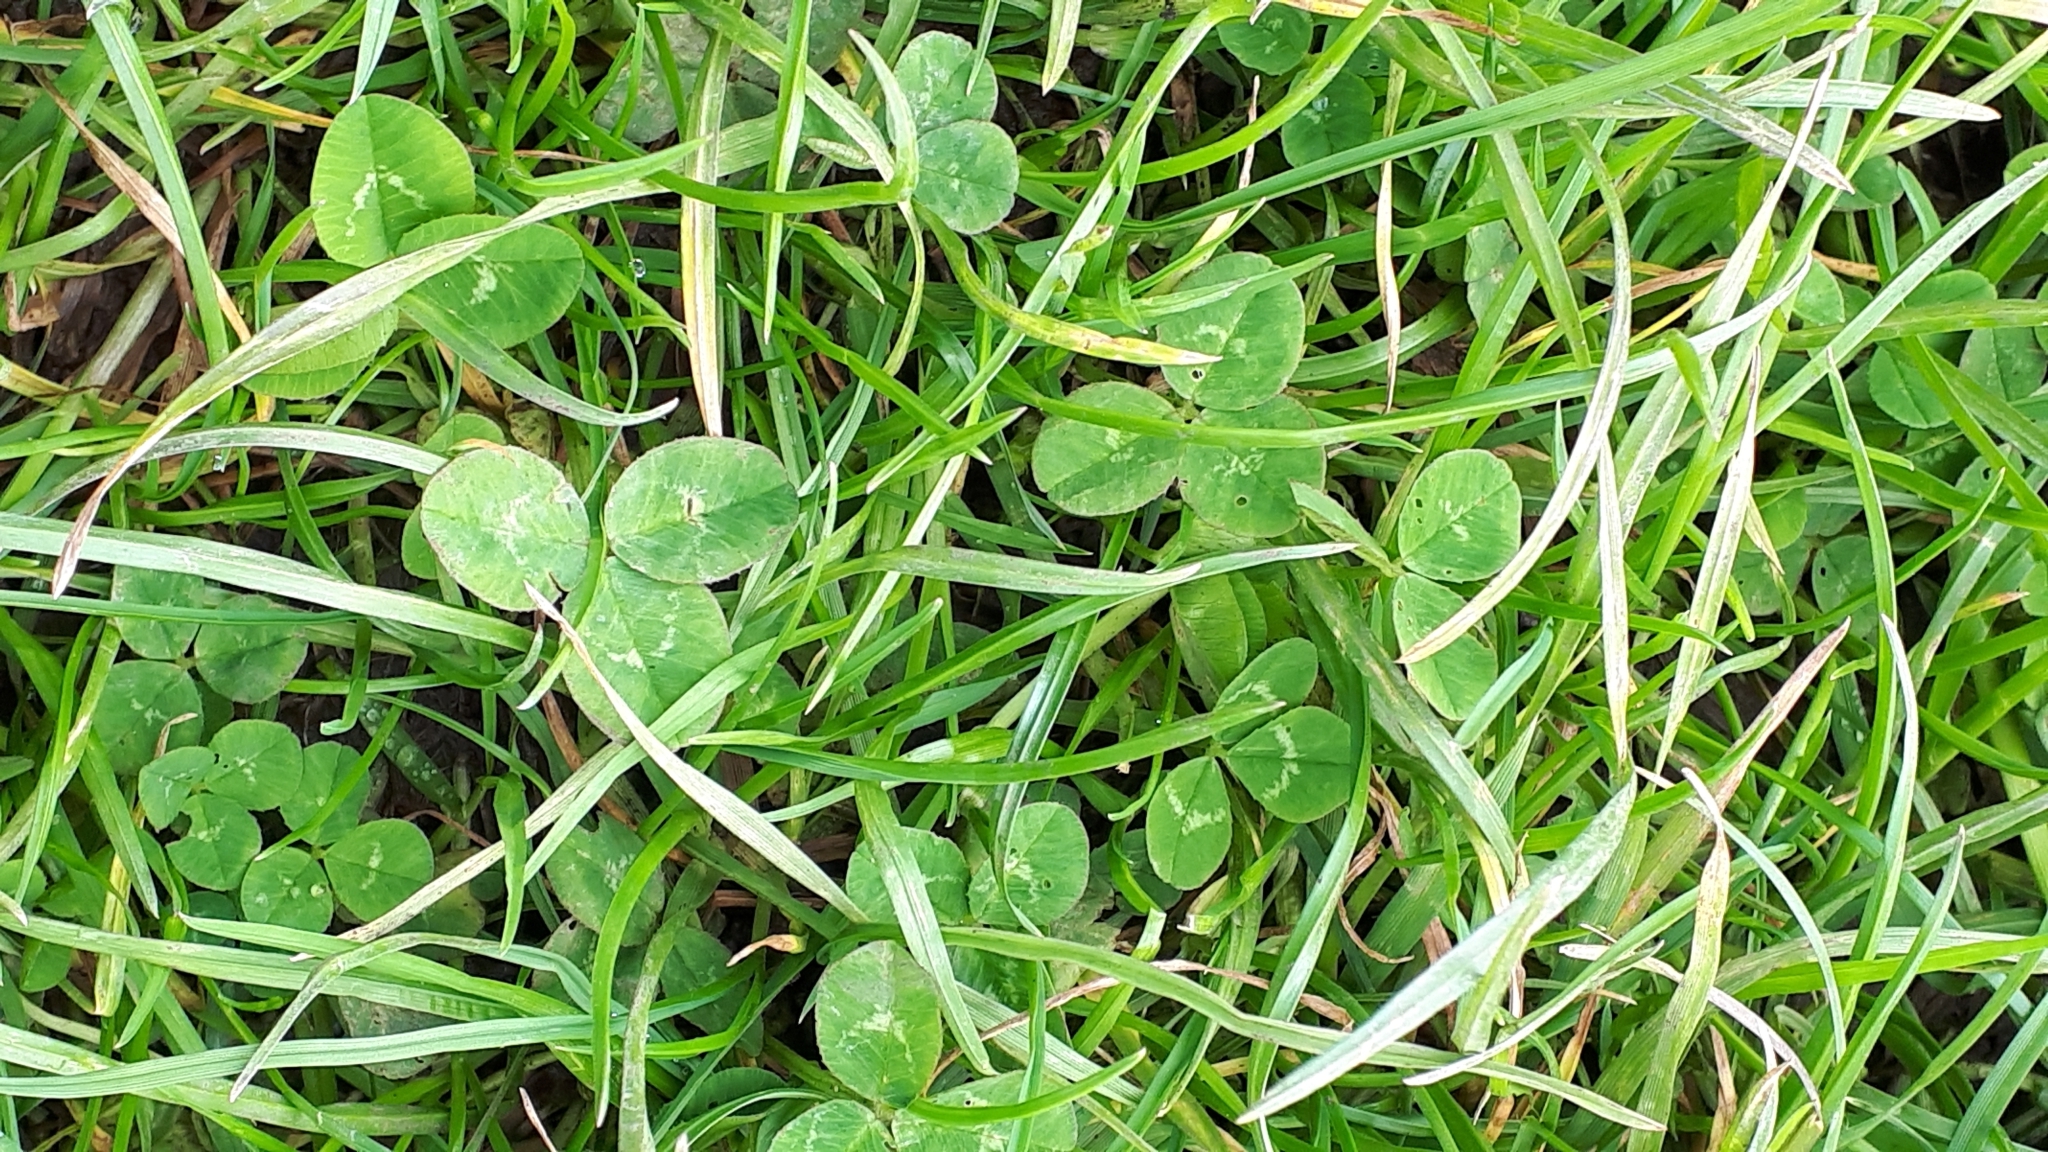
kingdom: Plantae
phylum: Tracheophyta
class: Magnoliopsida
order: Fabales
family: Fabaceae
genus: Trifolium
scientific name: Trifolium repens
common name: White clover
